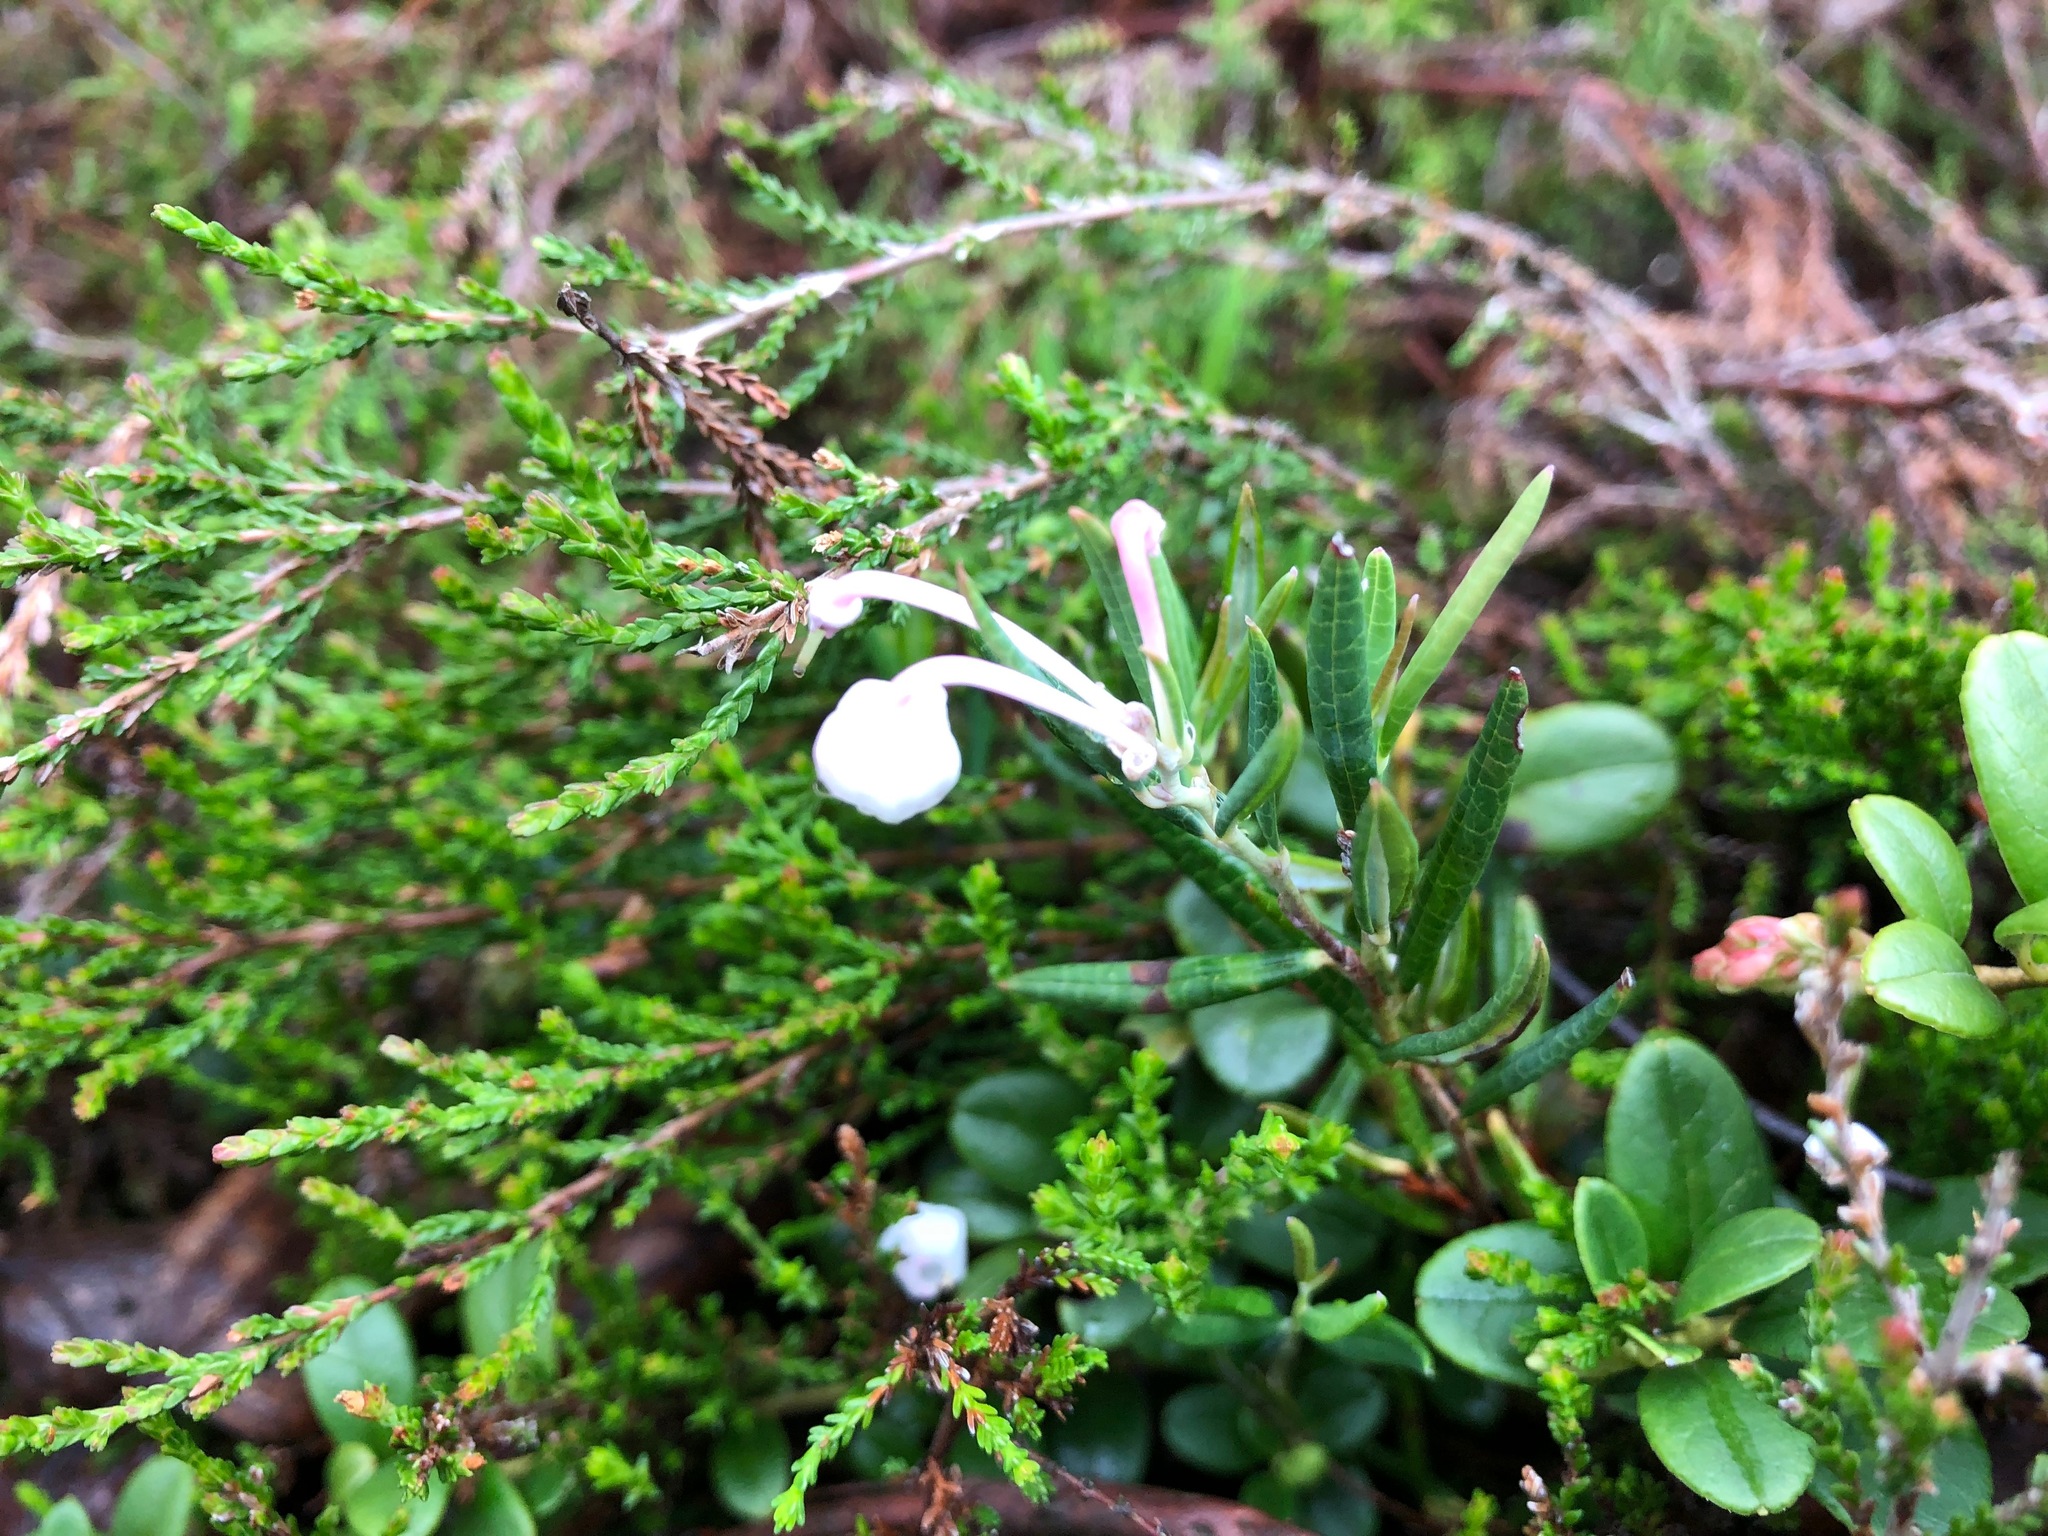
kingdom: Plantae
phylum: Tracheophyta
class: Magnoliopsida
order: Ericales
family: Ericaceae
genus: Andromeda
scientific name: Andromeda polifolia
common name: Bog-rosemary
